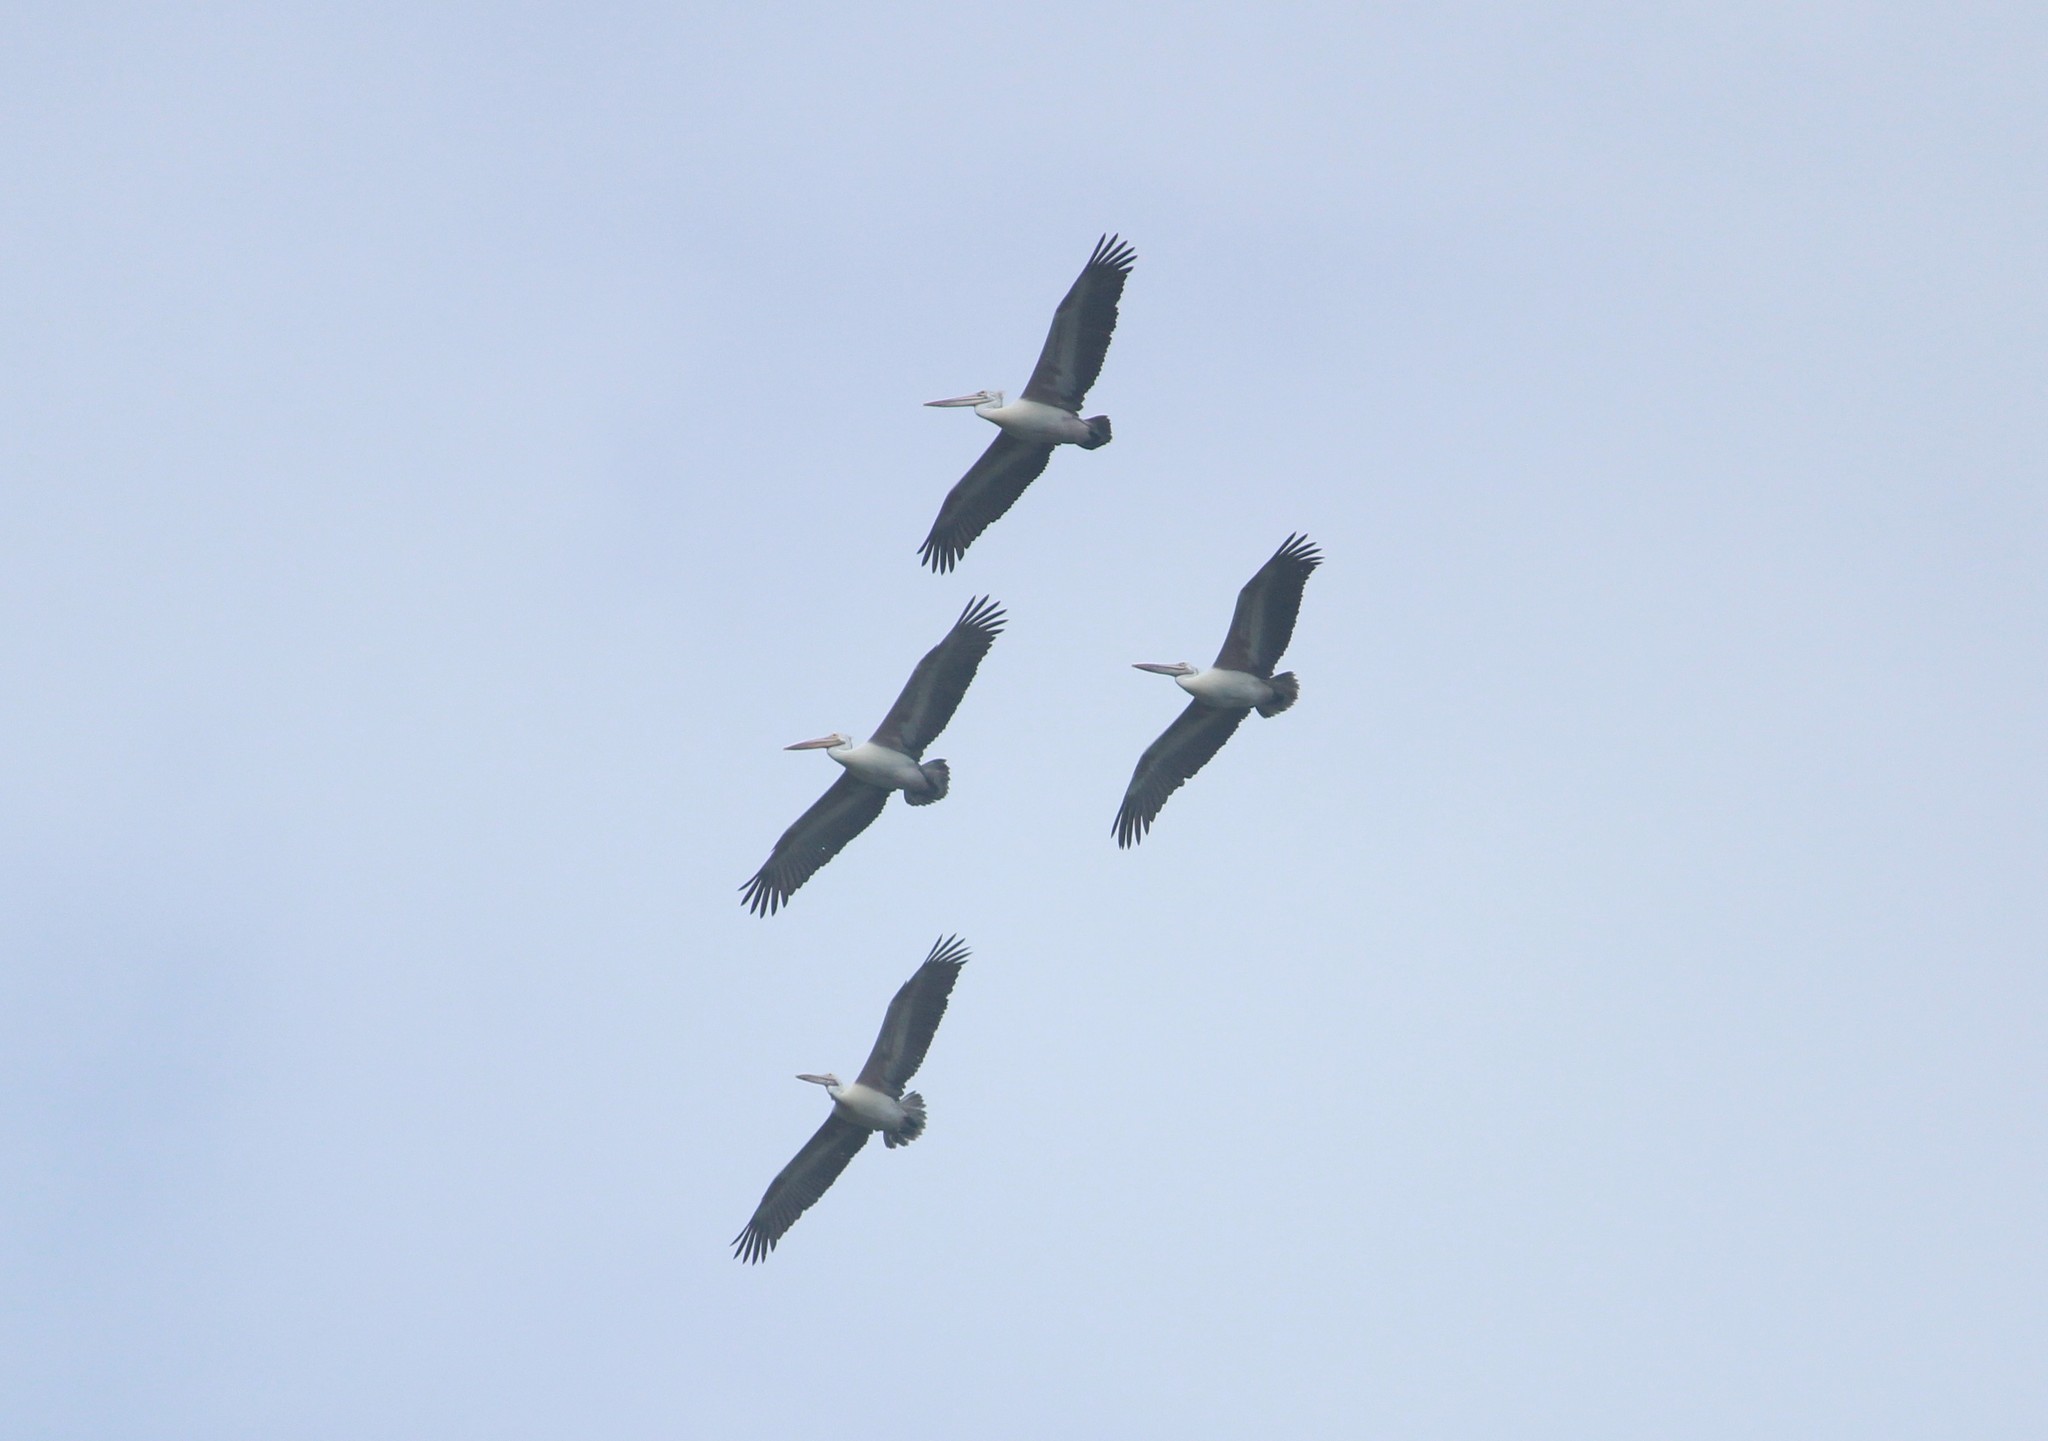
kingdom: Animalia
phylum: Chordata
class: Aves
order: Pelecaniformes
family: Pelecanidae
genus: Pelecanus
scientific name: Pelecanus philippensis
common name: Spot-billed pelican
